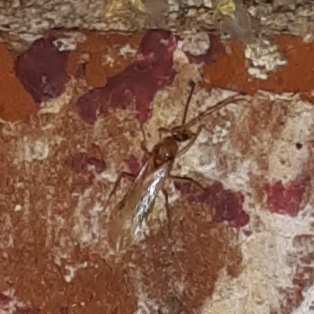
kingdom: Animalia
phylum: Arthropoda
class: Insecta
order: Hymenoptera
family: Formicidae
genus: Pachycondyla
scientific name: Pachycondyla chinensis
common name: Asian needle ant
